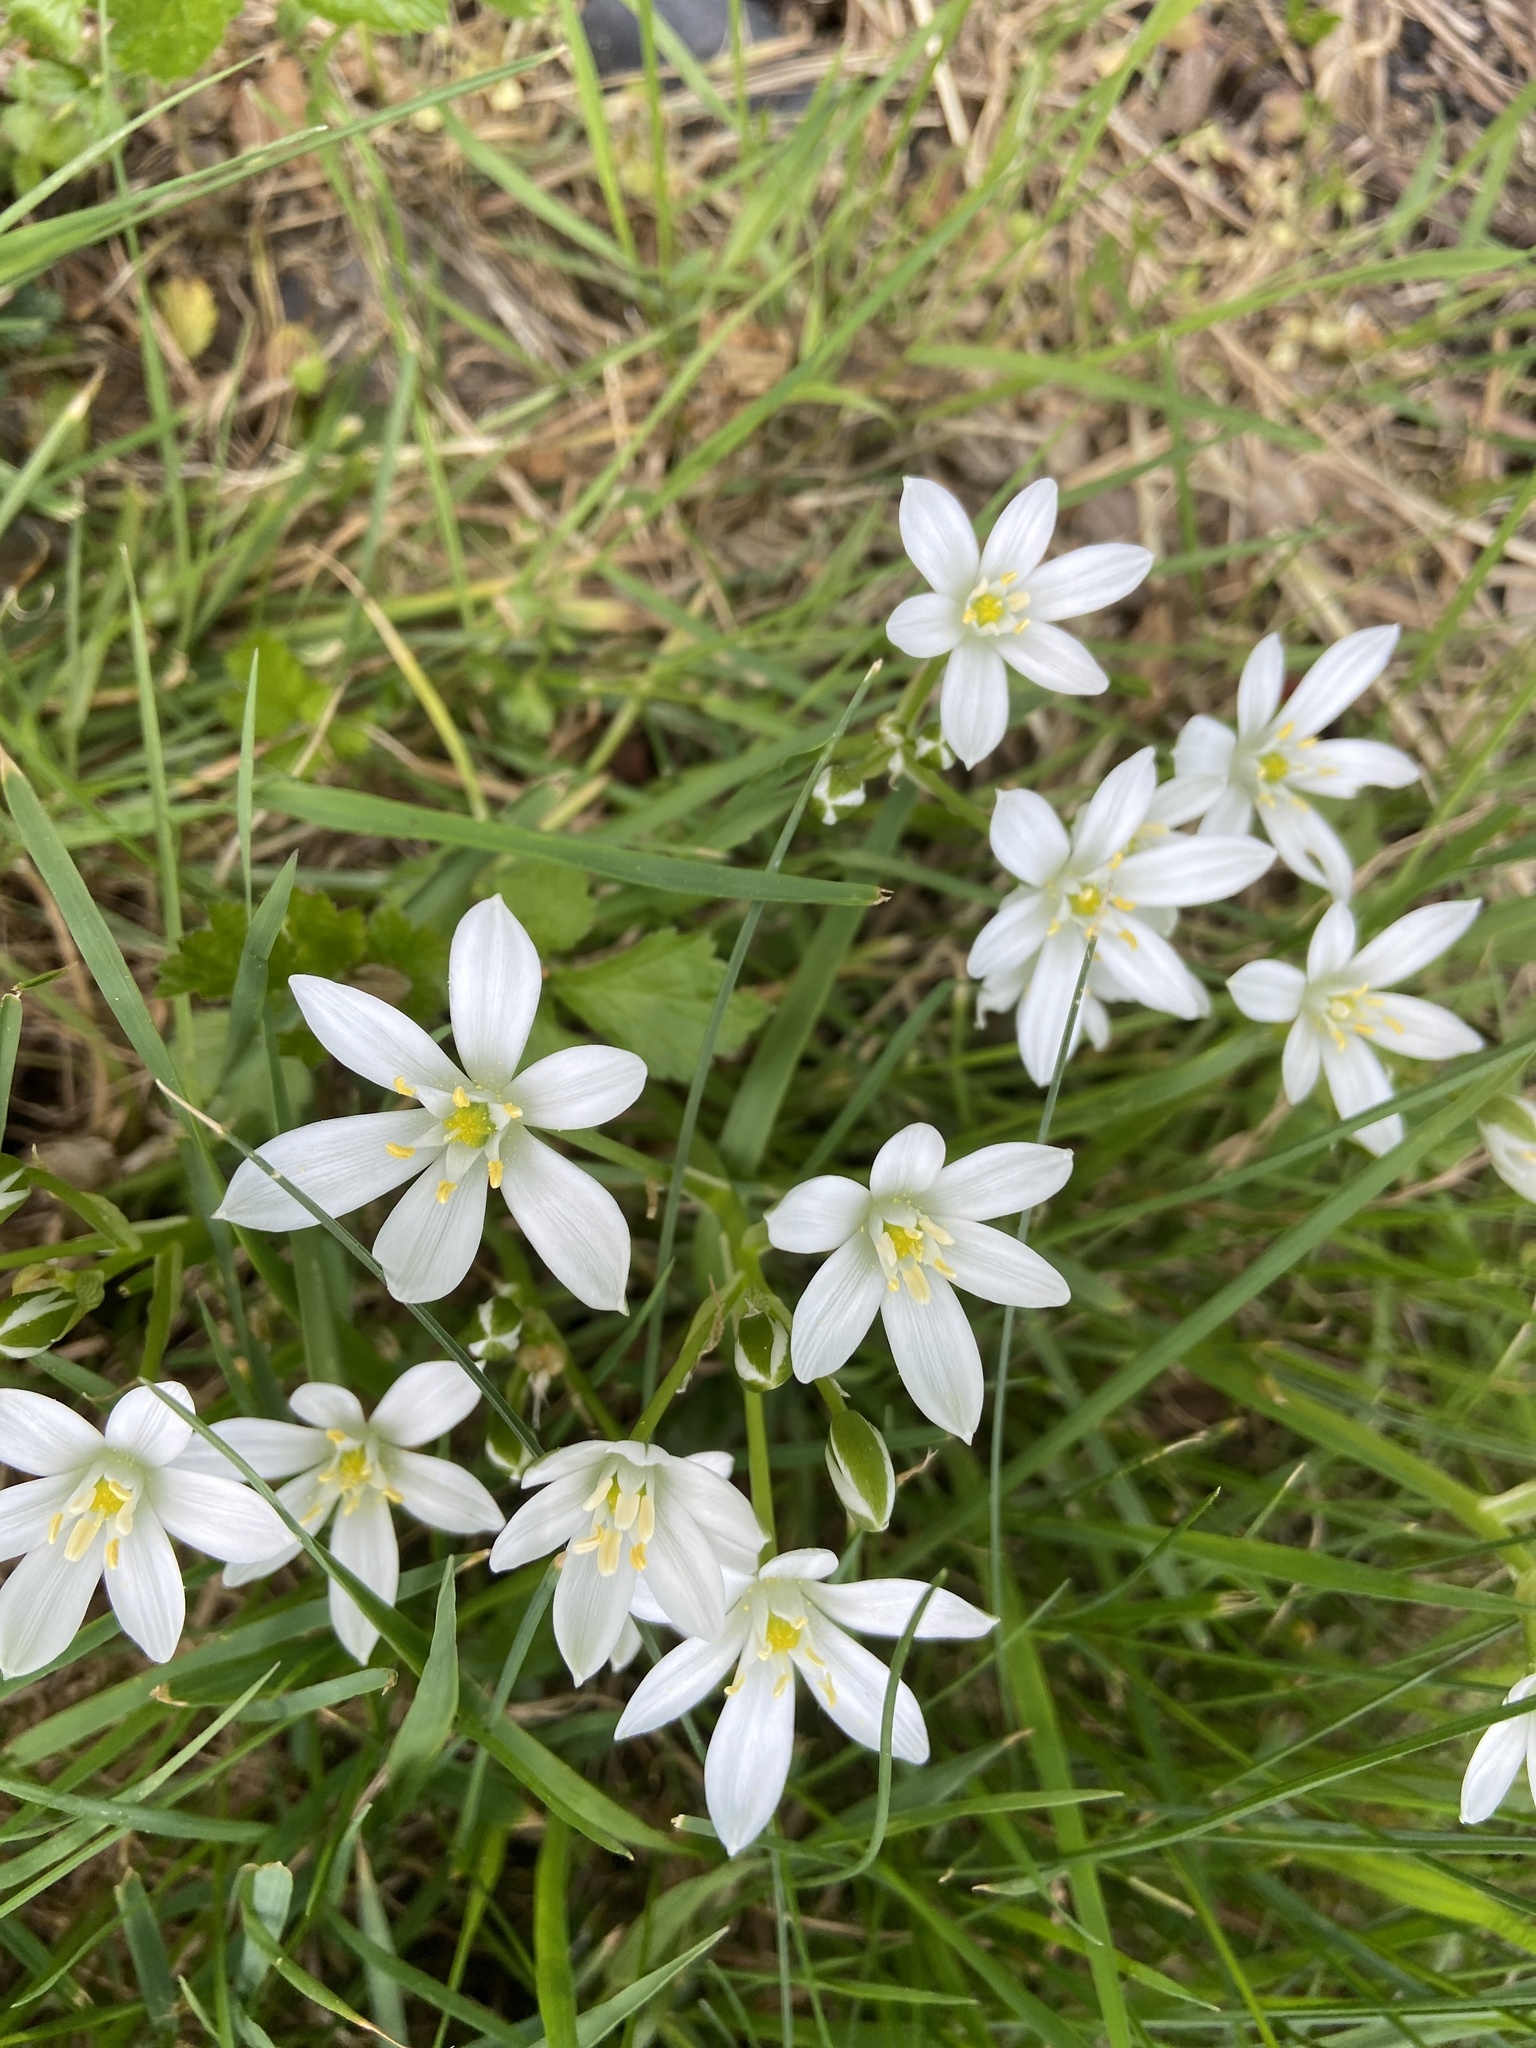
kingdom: Plantae
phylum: Tracheophyta
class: Liliopsida
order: Asparagales
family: Asparagaceae
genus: Ornithogalum
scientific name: Ornithogalum umbellatum
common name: Garden star-of-bethlehem
